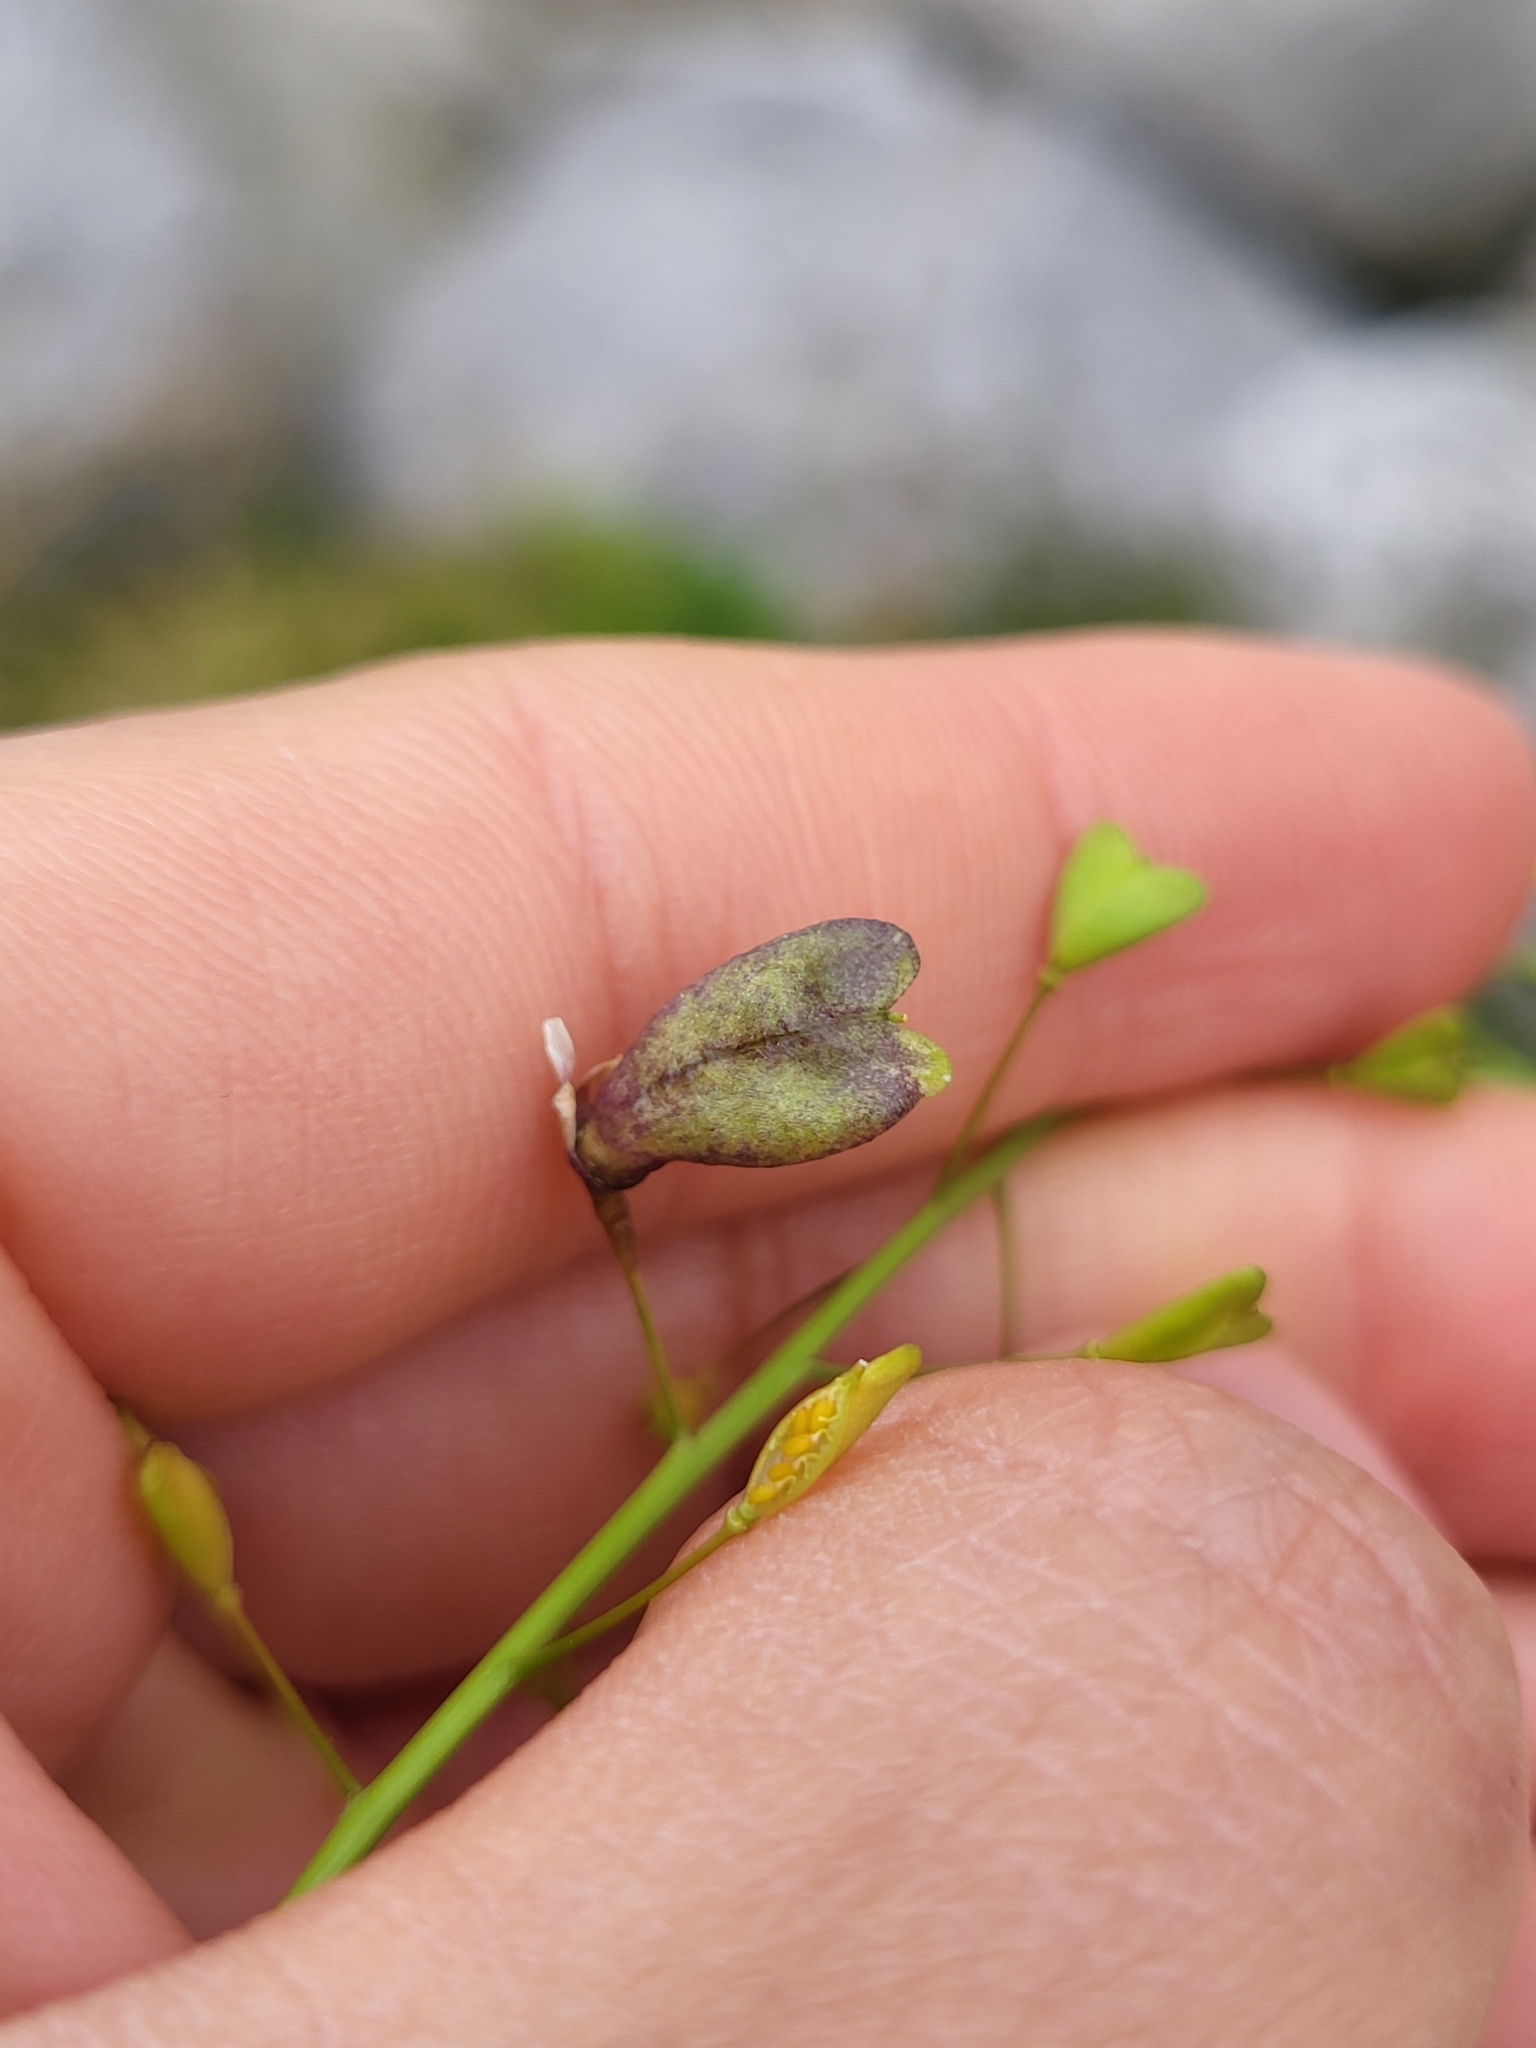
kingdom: Plantae
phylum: Tracheophyta
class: Magnoliopsida
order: Brassicales
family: Brassicaceae
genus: Capsella
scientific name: Capsella bursa-pastoris
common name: Shepherd's purse
